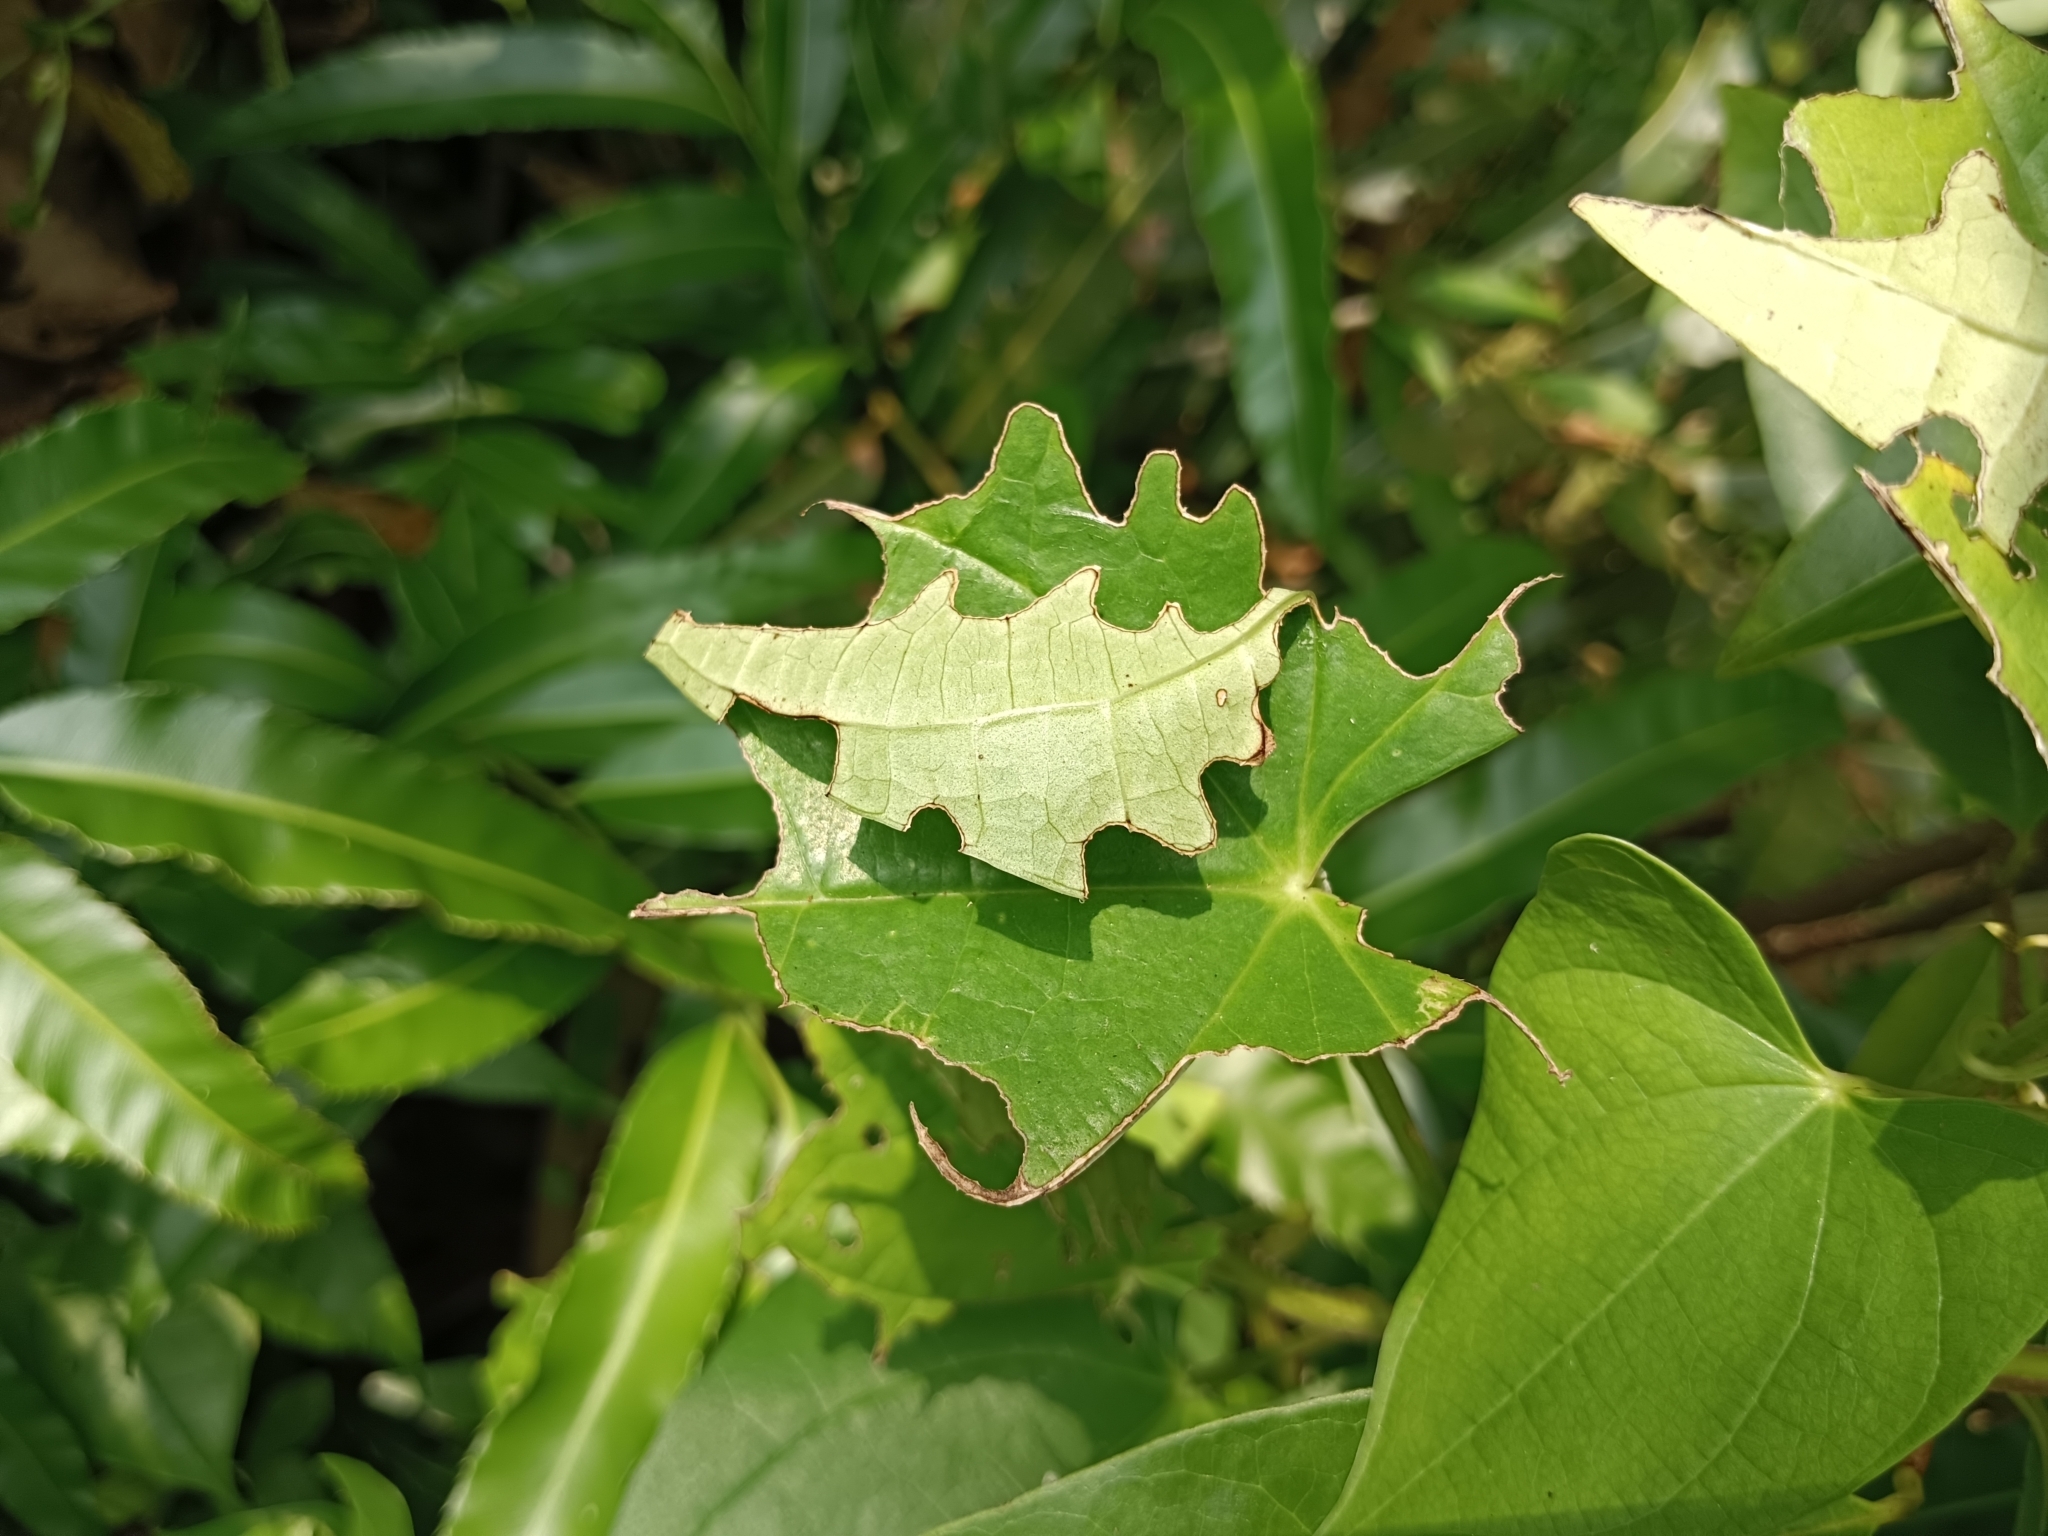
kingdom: Animalia
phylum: Arthropoda
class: Insecta
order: Lepidoptera
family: Hesperiidae
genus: Tagiades
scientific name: Tagiades litigiosa
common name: Water snow flat
